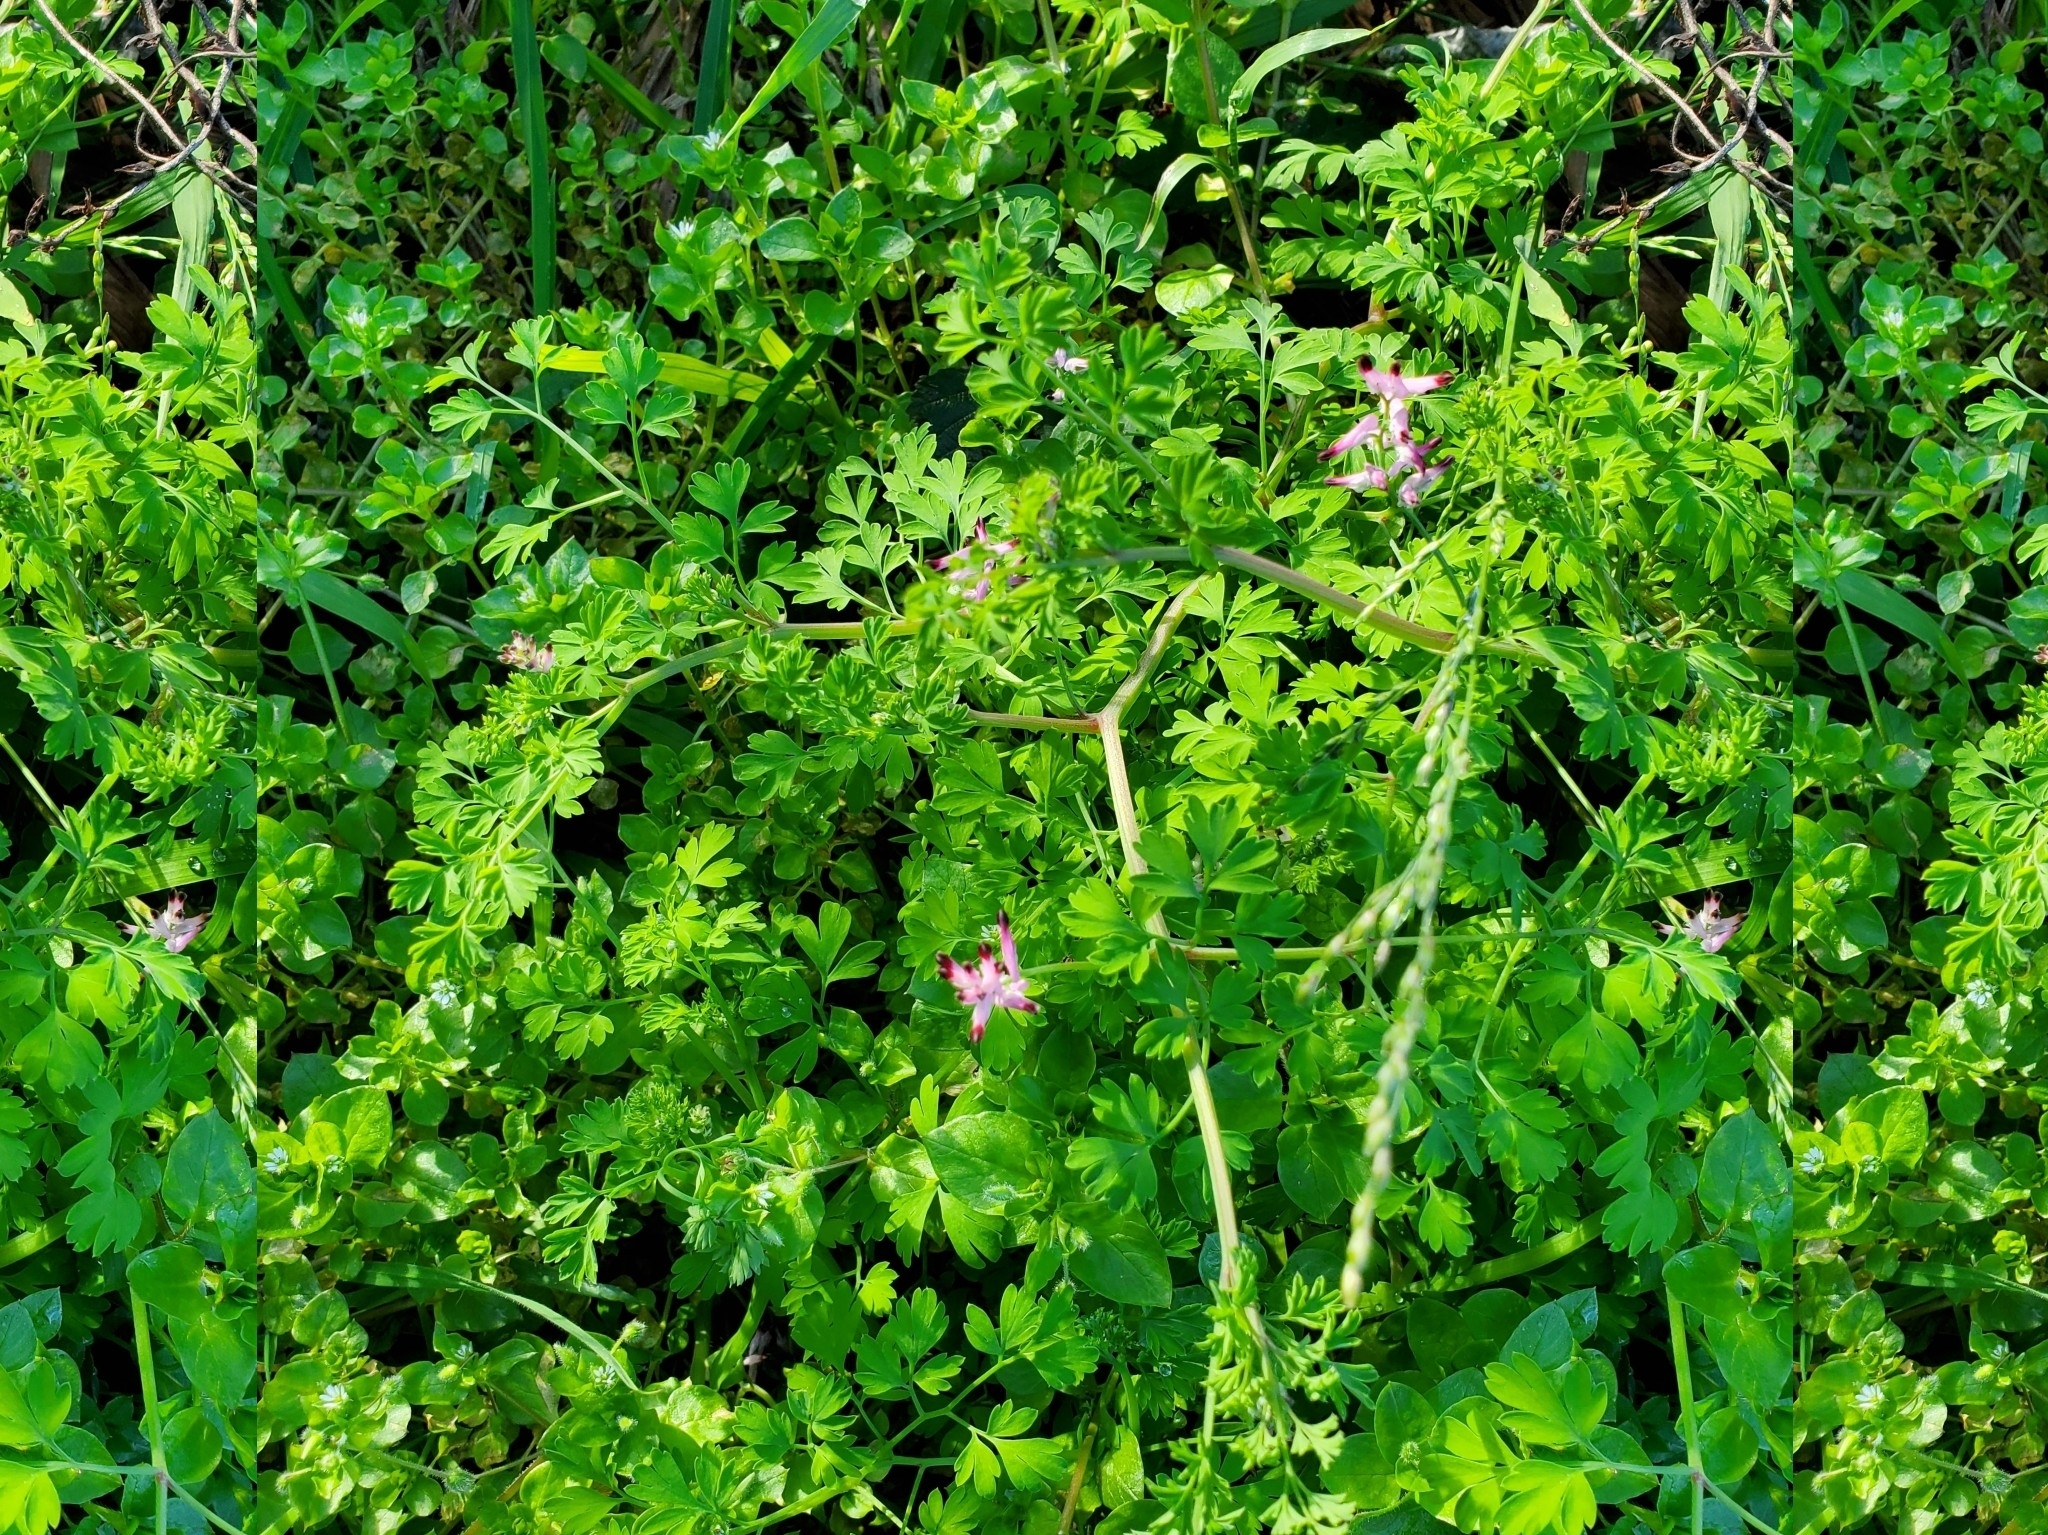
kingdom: Plantae
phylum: Tracheophyta
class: Magnoliopsida
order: Ranunculales
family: Papaveraceae
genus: Fumaria
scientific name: Fumaria muralis
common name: Common ramping-fumitory
